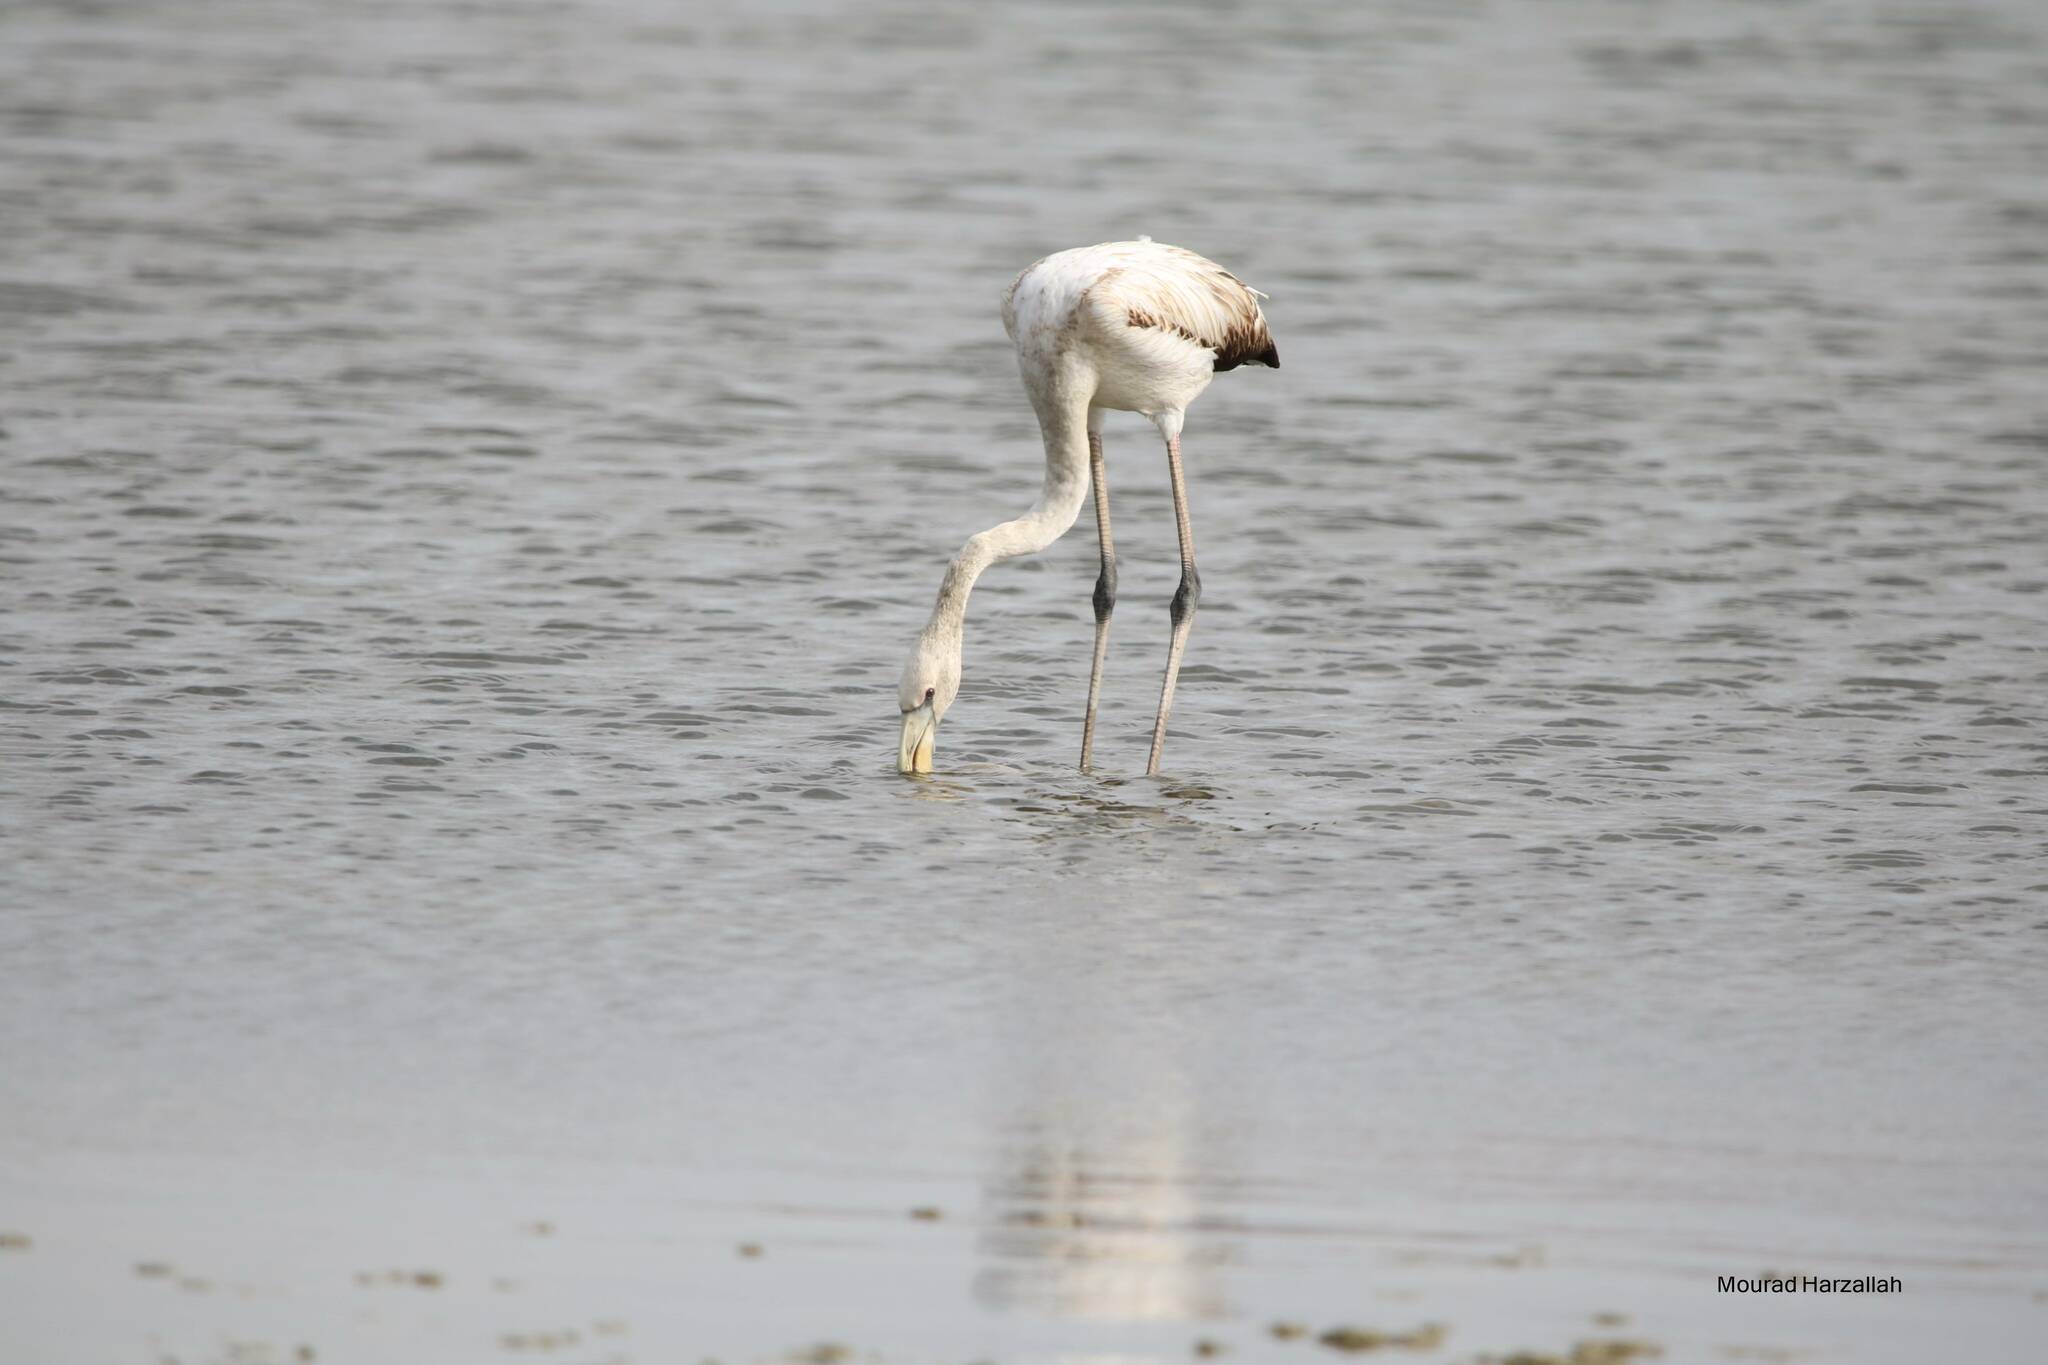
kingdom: Animalia
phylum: Chordata
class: Aves
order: Phoenicopteriformes
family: Phoenicopteridae
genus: Phoenicopterus
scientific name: Phoenicopterus roseus
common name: Greater flamingo
